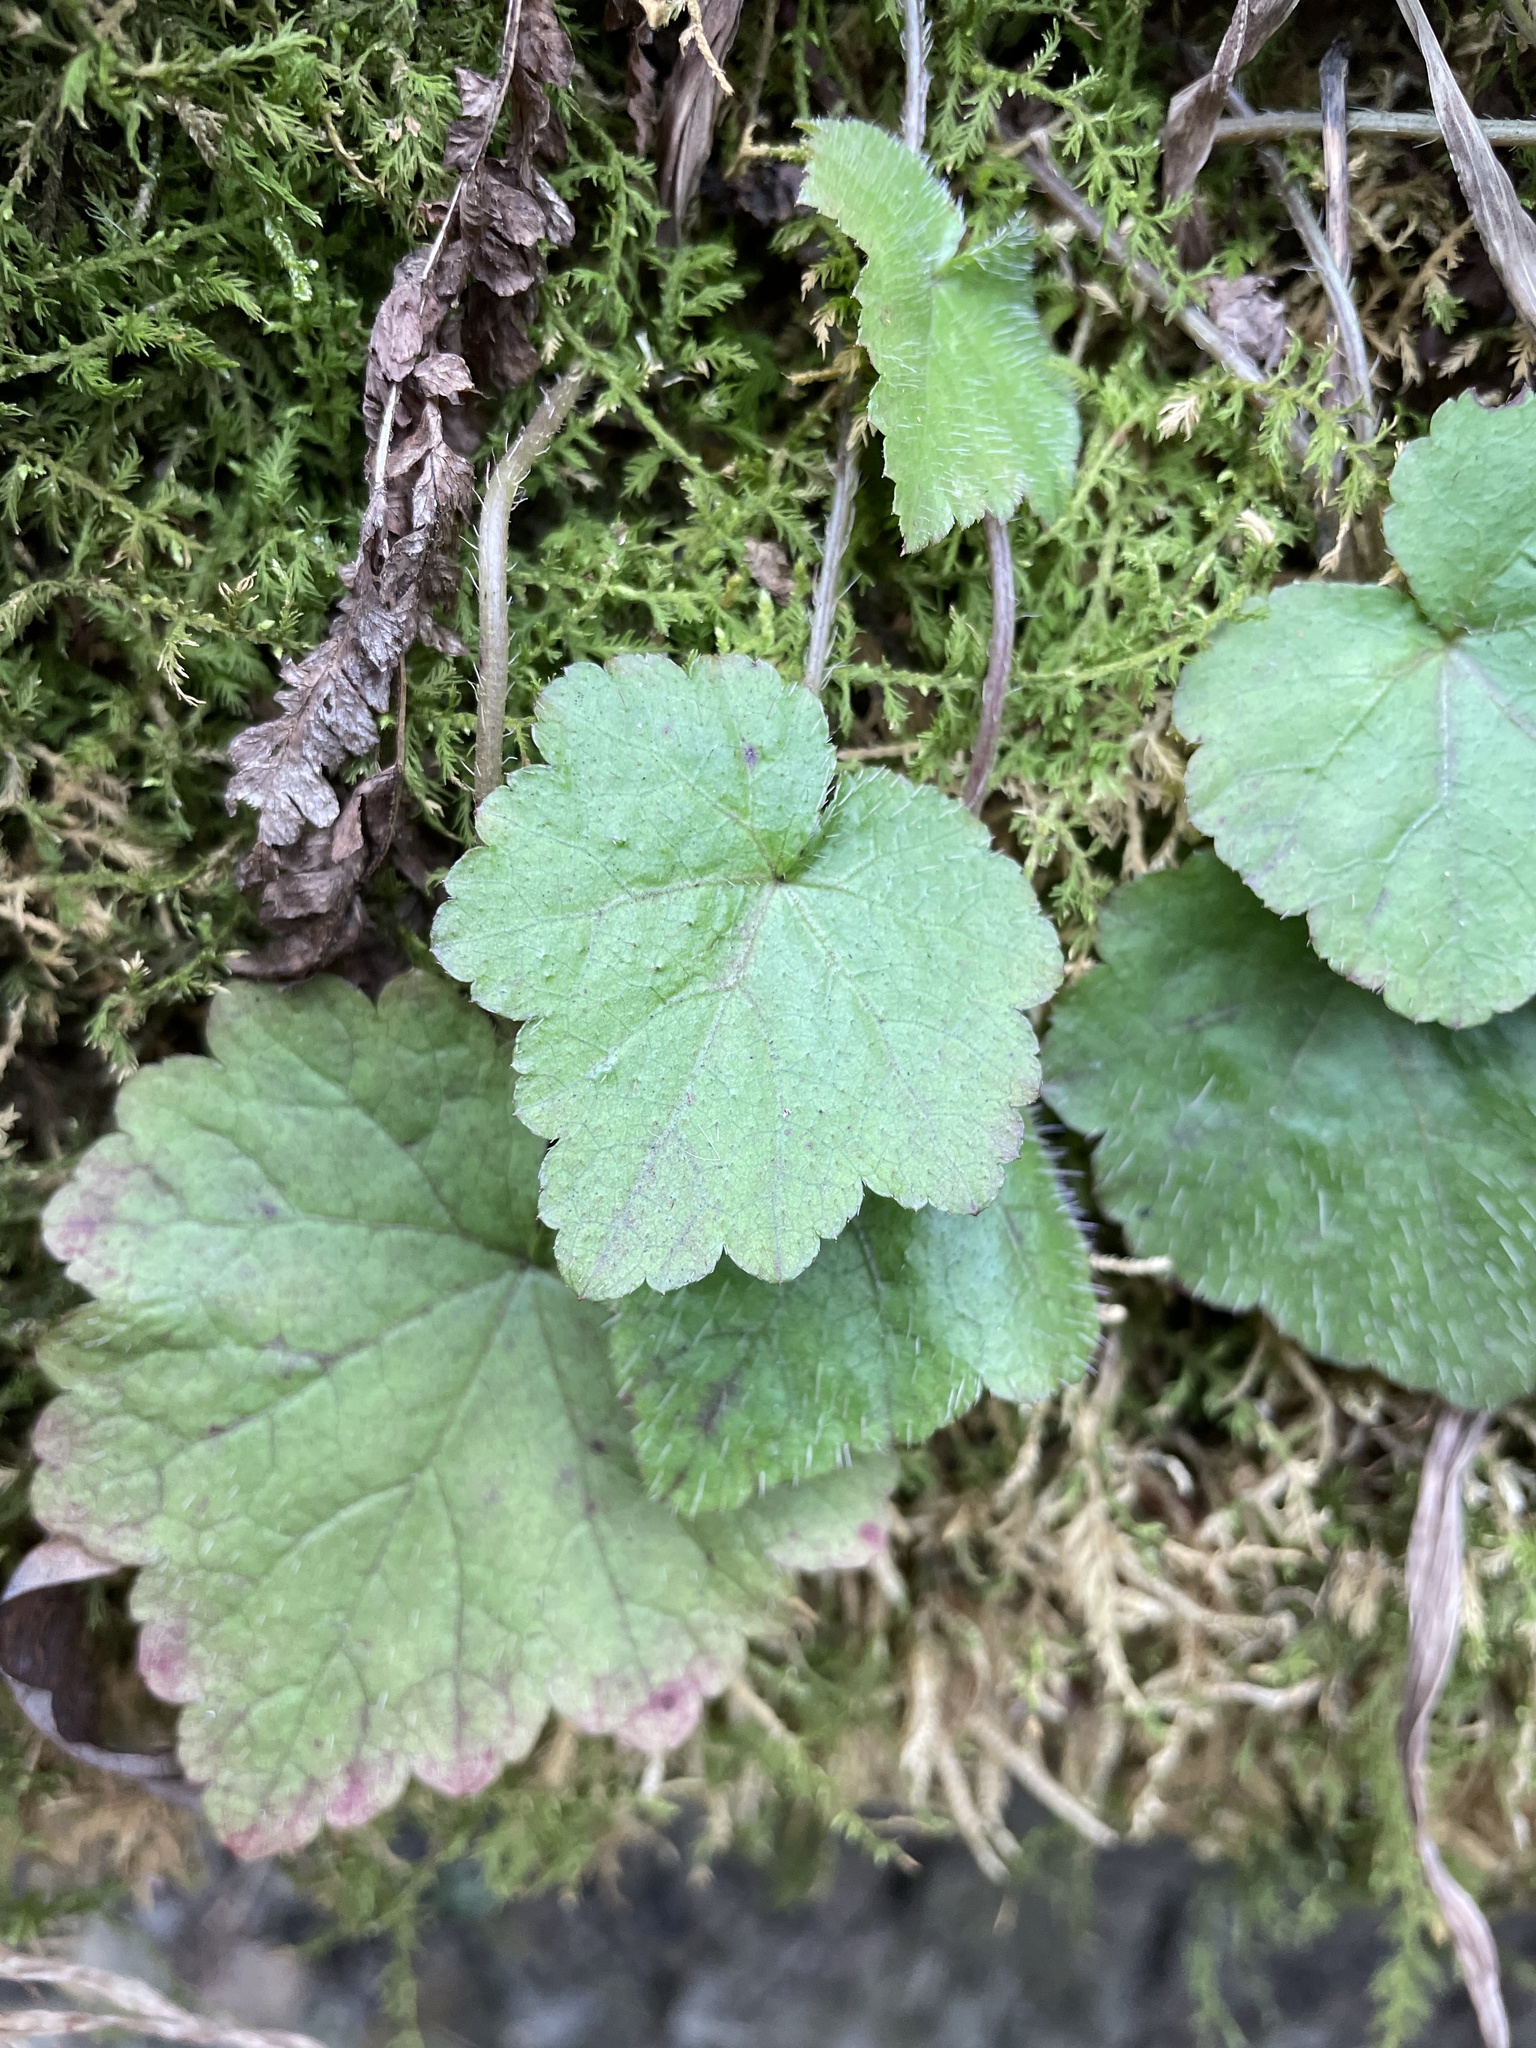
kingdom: Plantae
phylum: Tracheophyta
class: Magnoliopsida
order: Saxifragales
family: Saxifragaceae
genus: Mitella
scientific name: Mitella diphylla
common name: Coolwort
